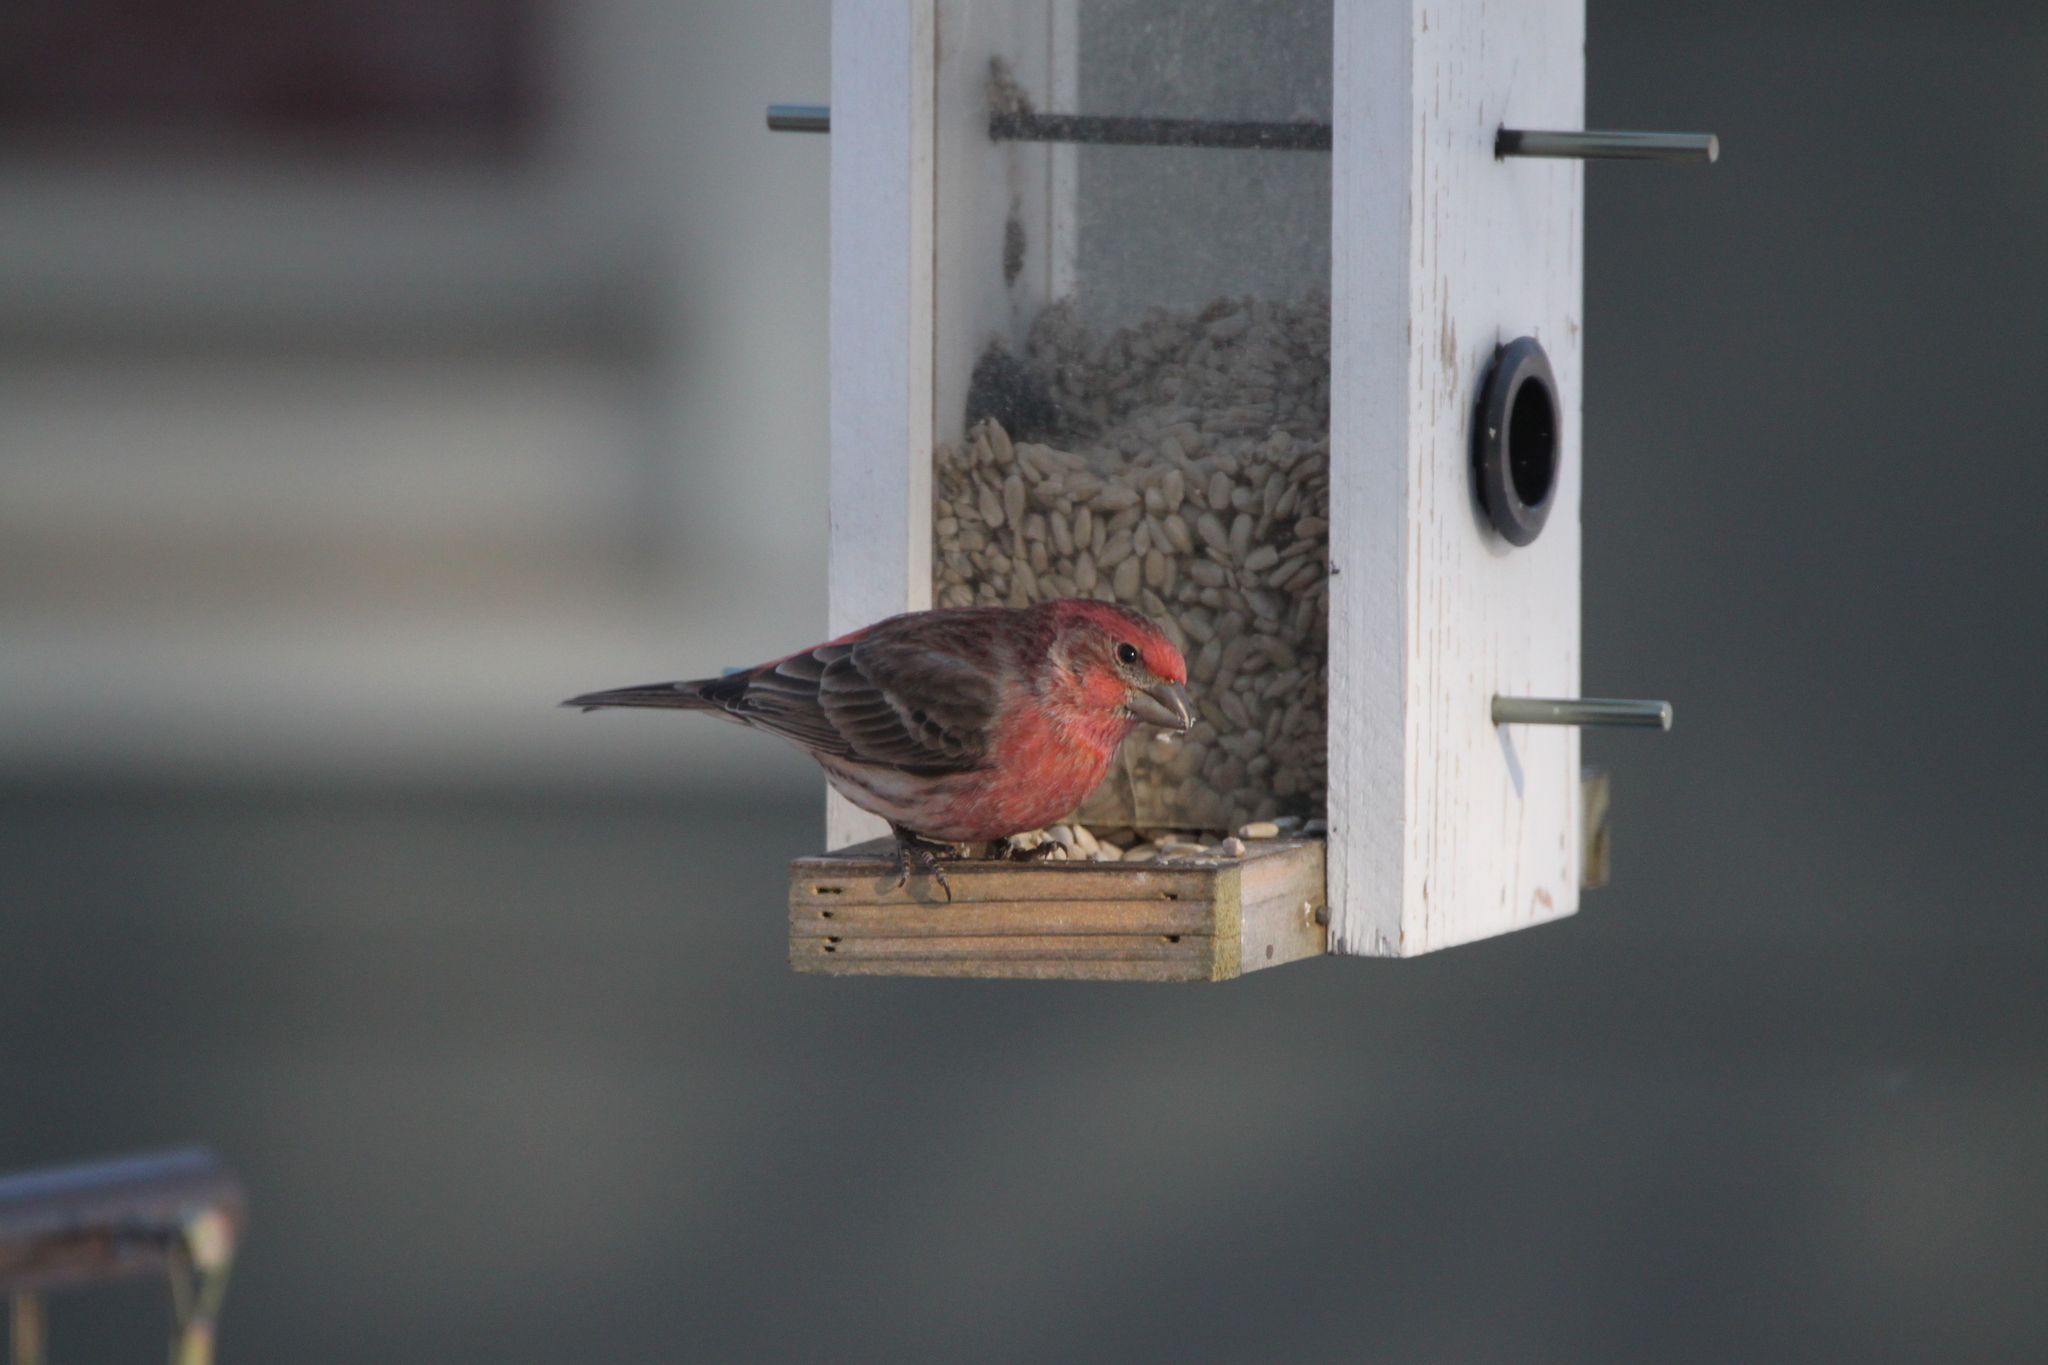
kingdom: Animalia
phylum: Chordata
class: Aves
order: Passeriformes
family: Fringillidae
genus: Haemorhous
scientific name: Haemorhous mexicanus
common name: House finch
